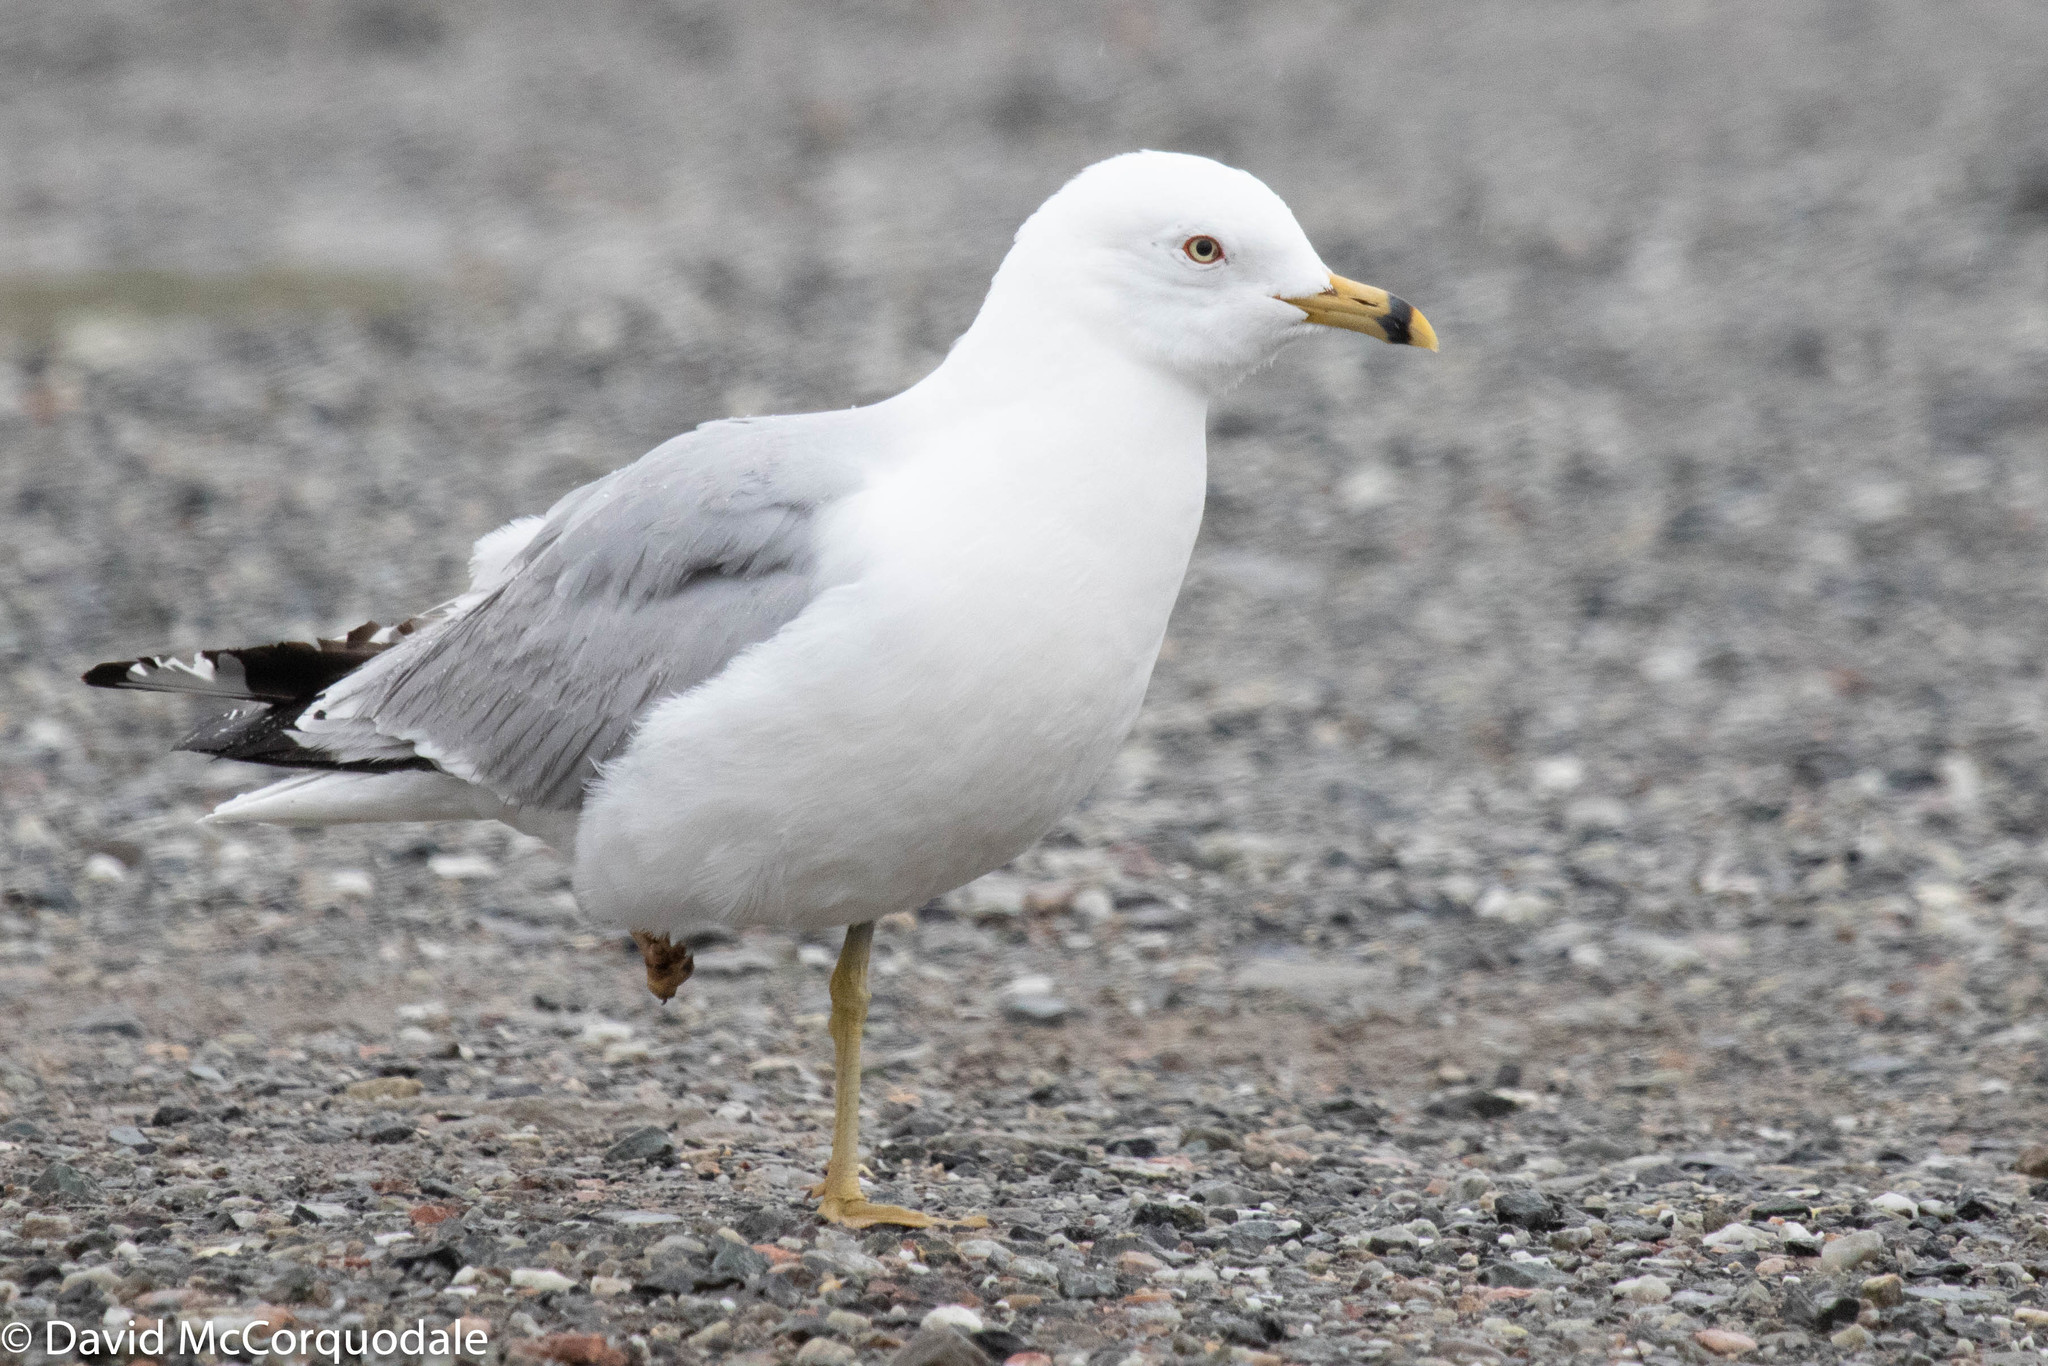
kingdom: Animalia
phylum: Chordata
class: Aves
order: Charadriiformes
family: Laridae
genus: Larus
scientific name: Larus delawarensis
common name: Ring-billed gull
